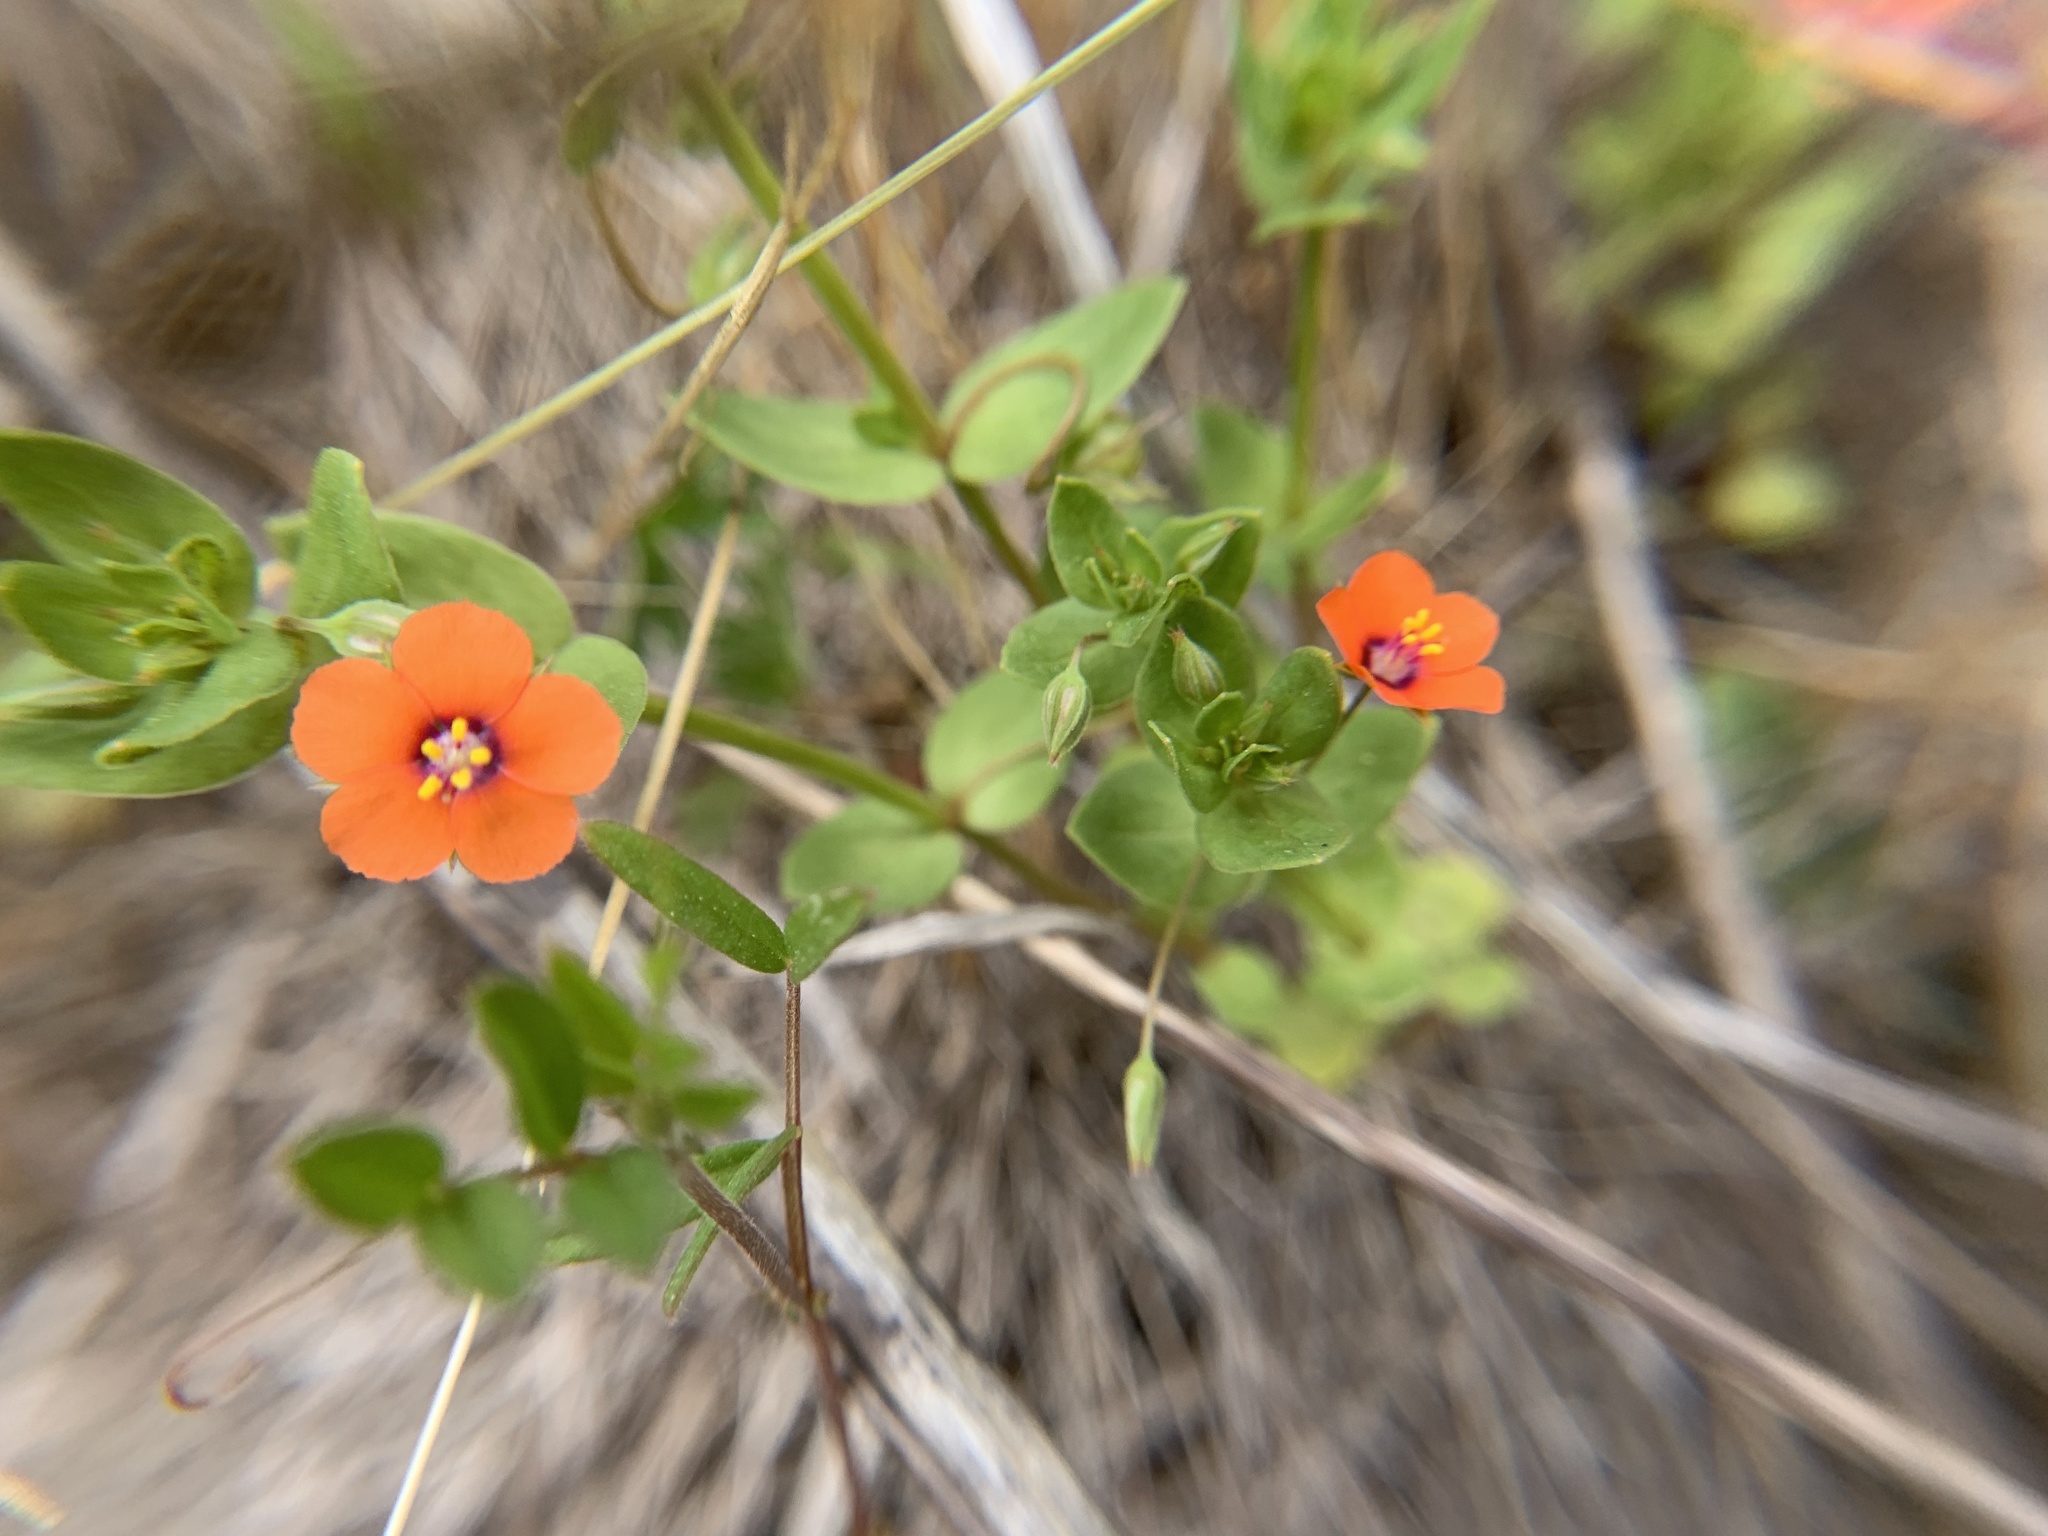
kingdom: Plantae
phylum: Tracheophyta
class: Magnoliopsida
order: Ericales
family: Primulaceae
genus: Lysimachia
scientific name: Lysimachia arvensis
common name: Scarlet pimpernel
